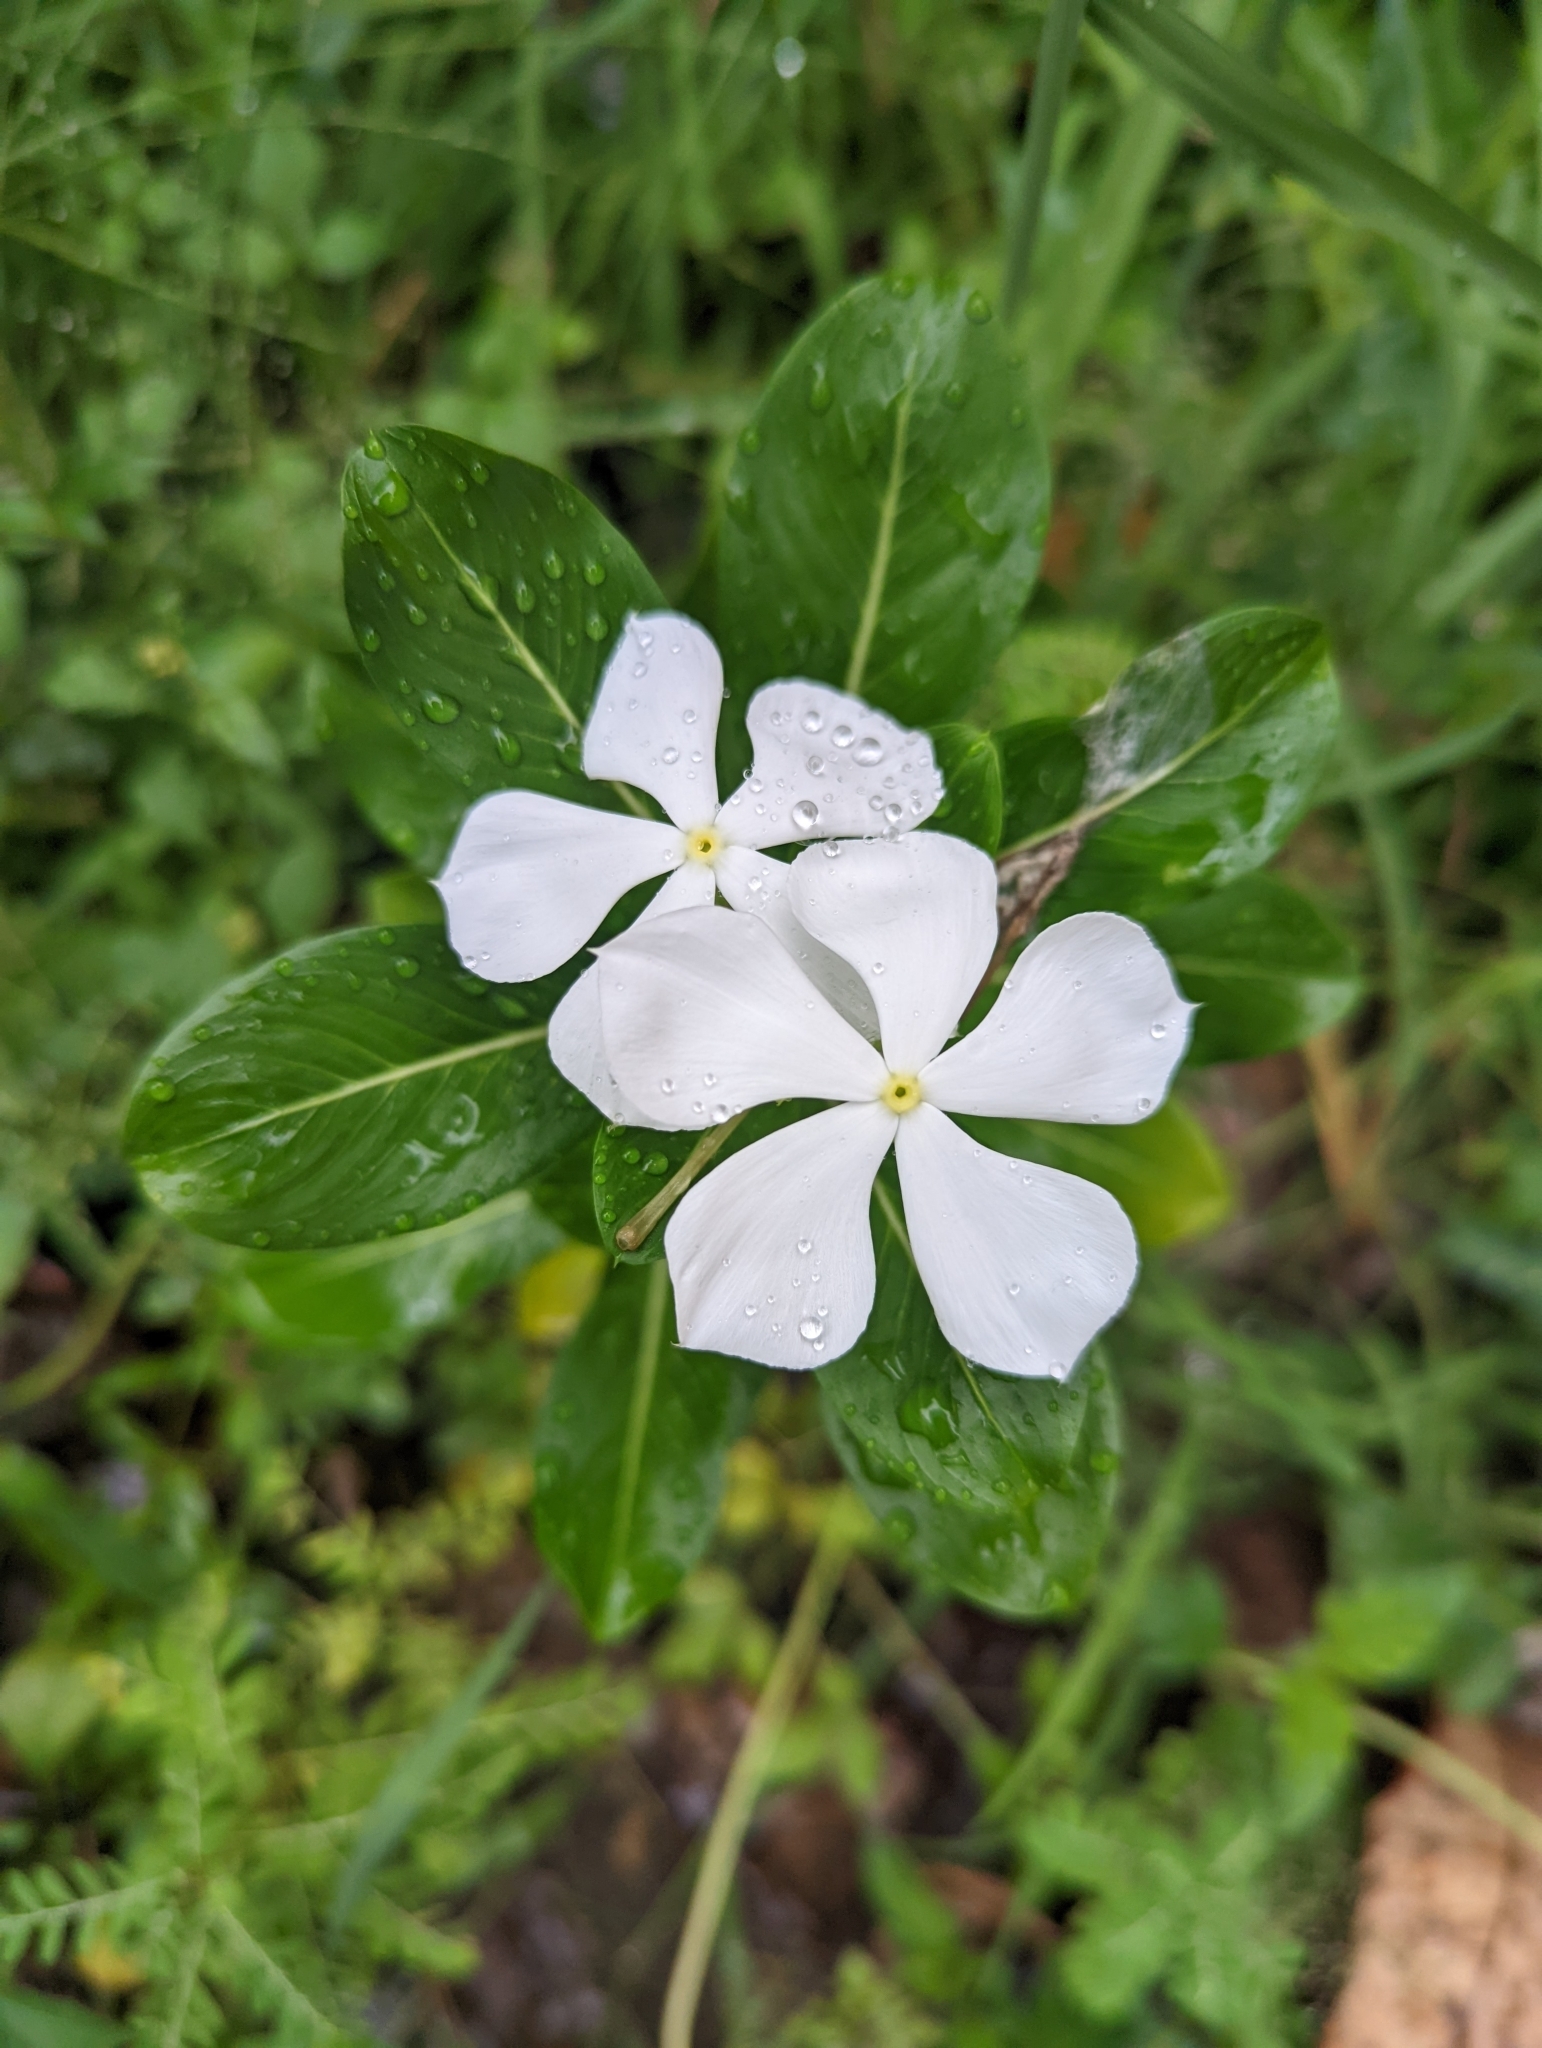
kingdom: Plantae
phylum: Tracheophyta
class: Magnoliopsida
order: Gentianales
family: Apocynaceae
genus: Catharanthus
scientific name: Catharanthus roseus
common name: Madagascar periwinkle
